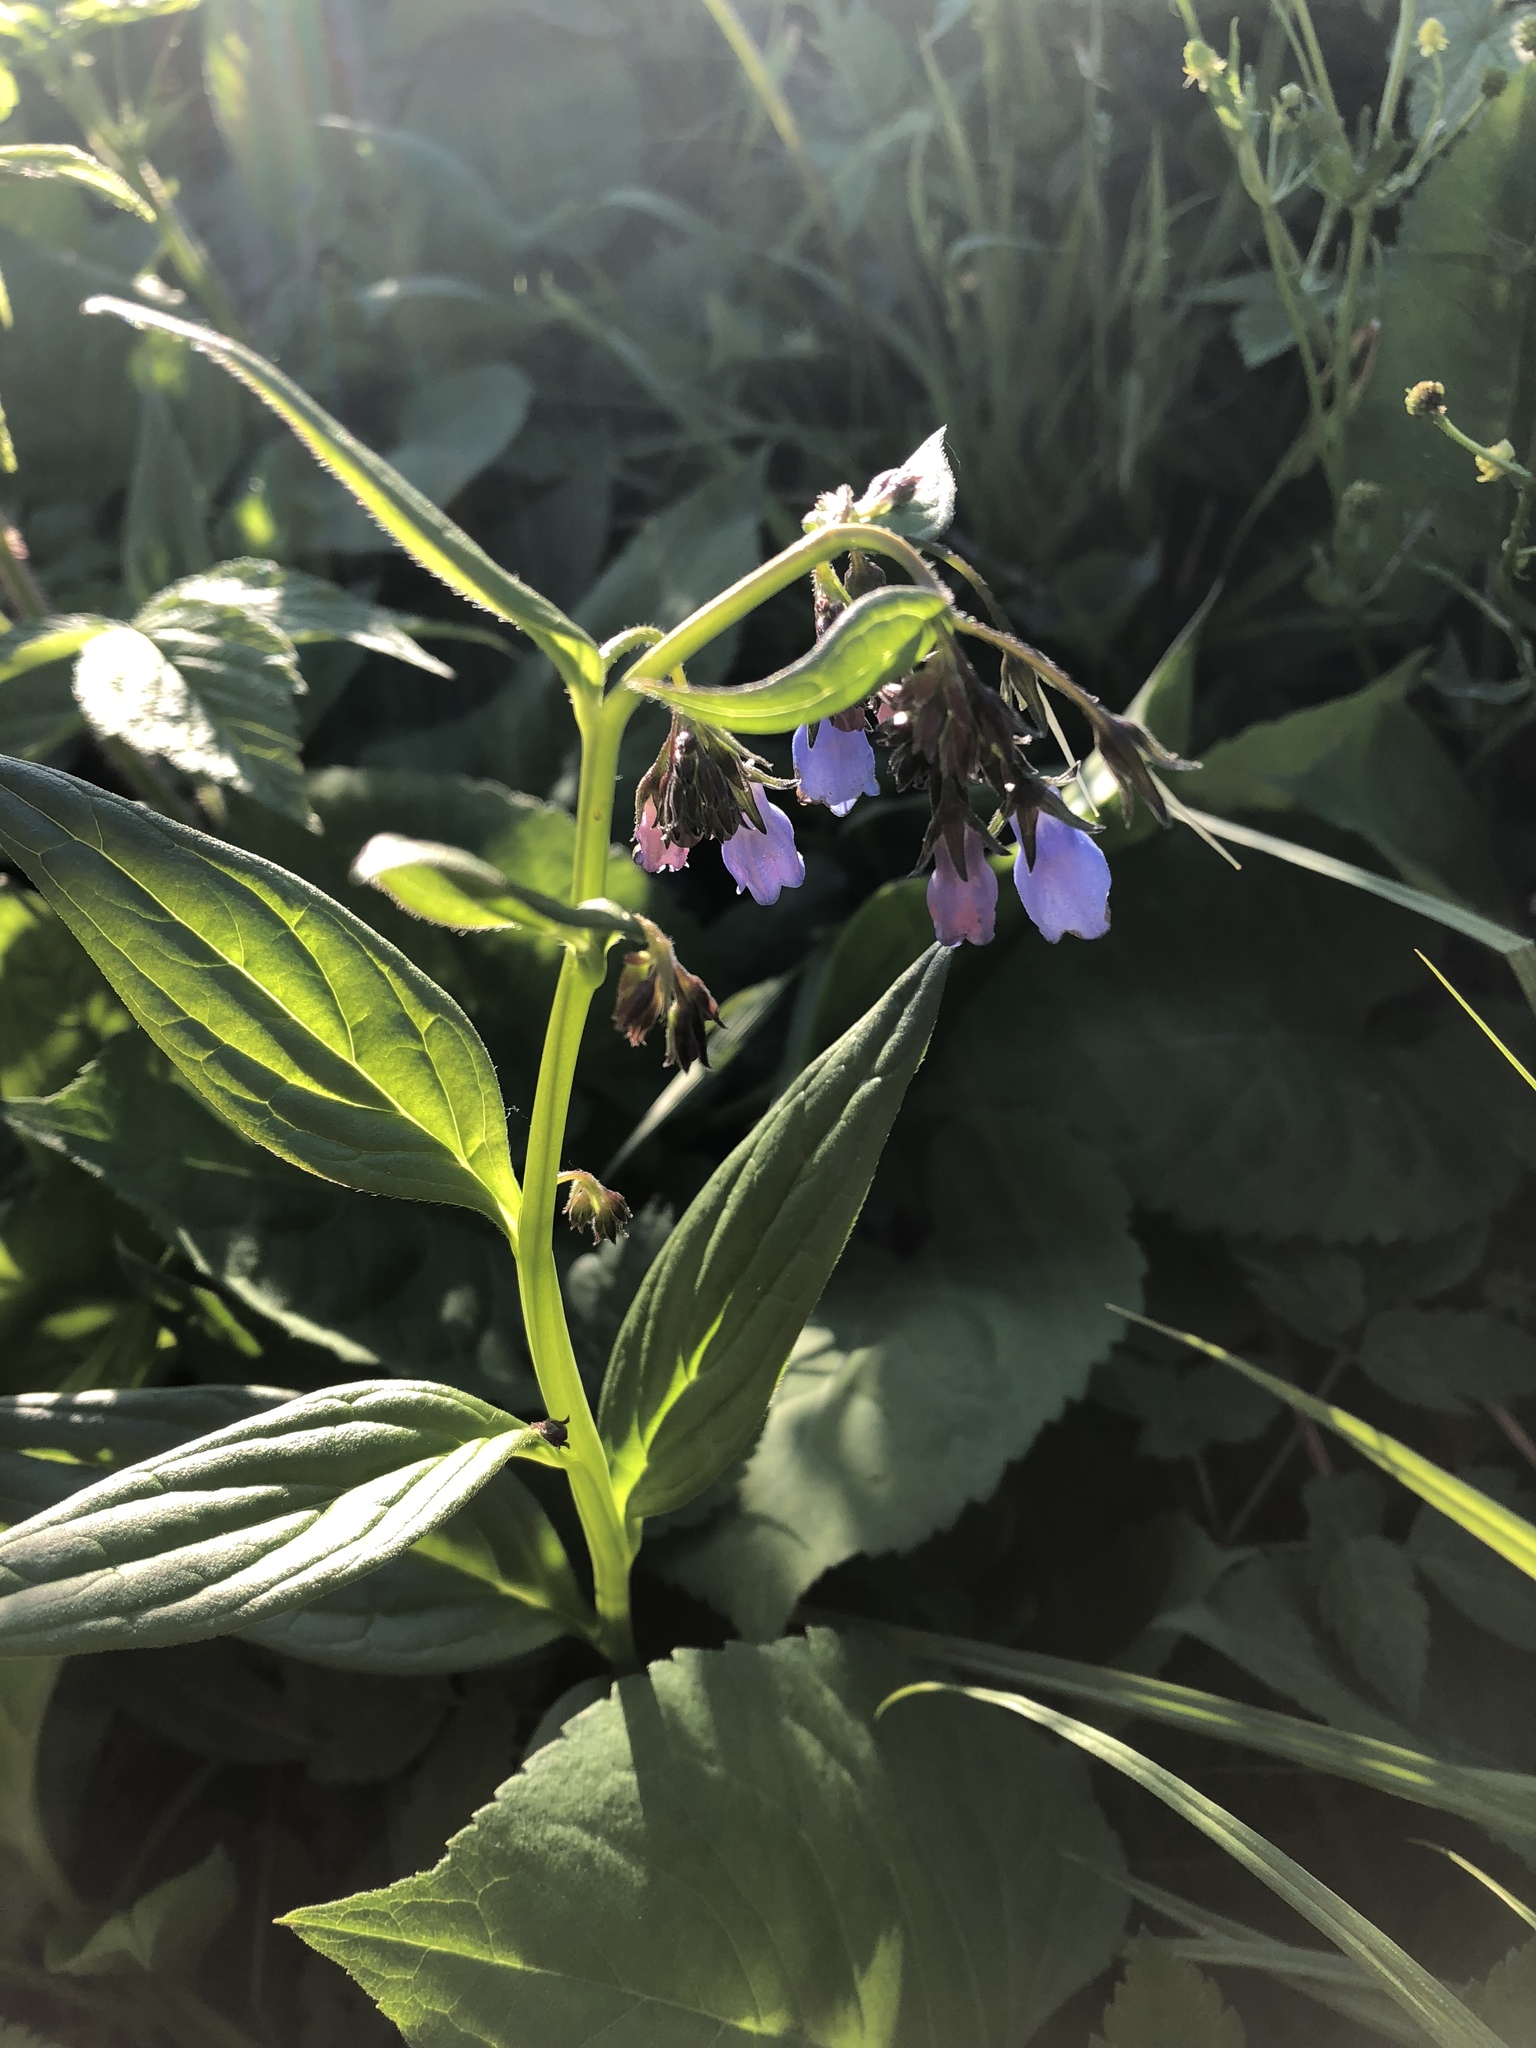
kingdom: Plantae
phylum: Tracheophyta
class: Magnoliopsida
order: Boraginales
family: Boraginaceae
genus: Mertensia
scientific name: Mertensia paniculata
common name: Panicled bluebells
